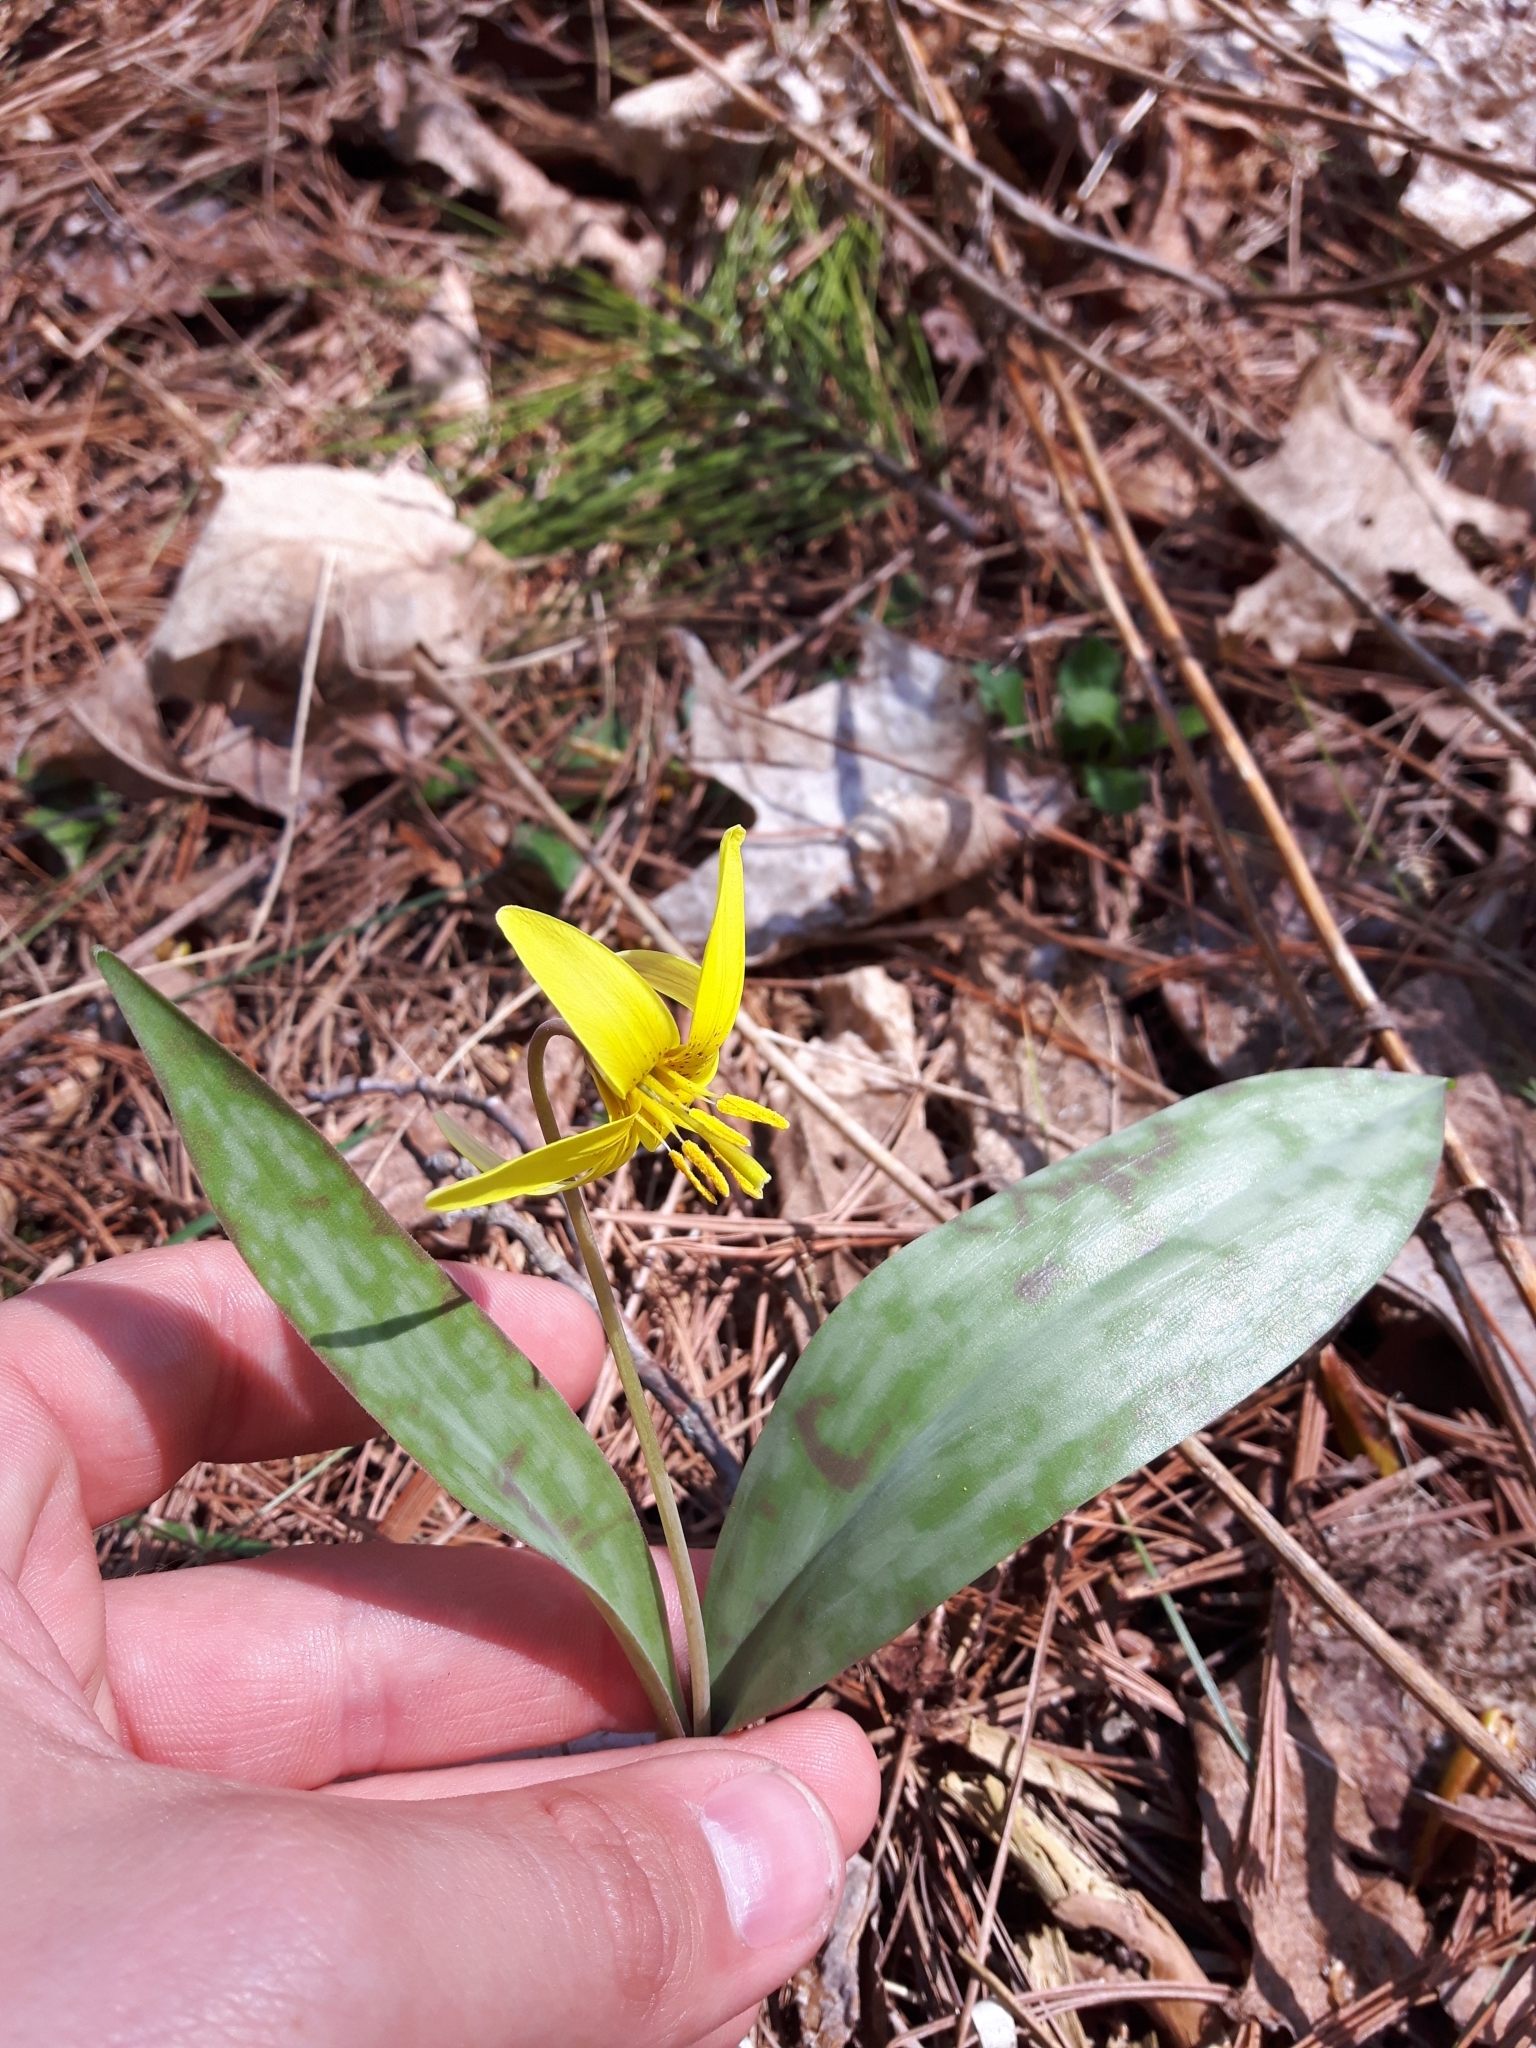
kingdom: Plantae
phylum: Tracheophyta
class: Liliopsida
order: Liliales
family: Liliaceae
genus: Erythronium
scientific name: Erythronium americanum
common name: Yellow adder's-tongue
